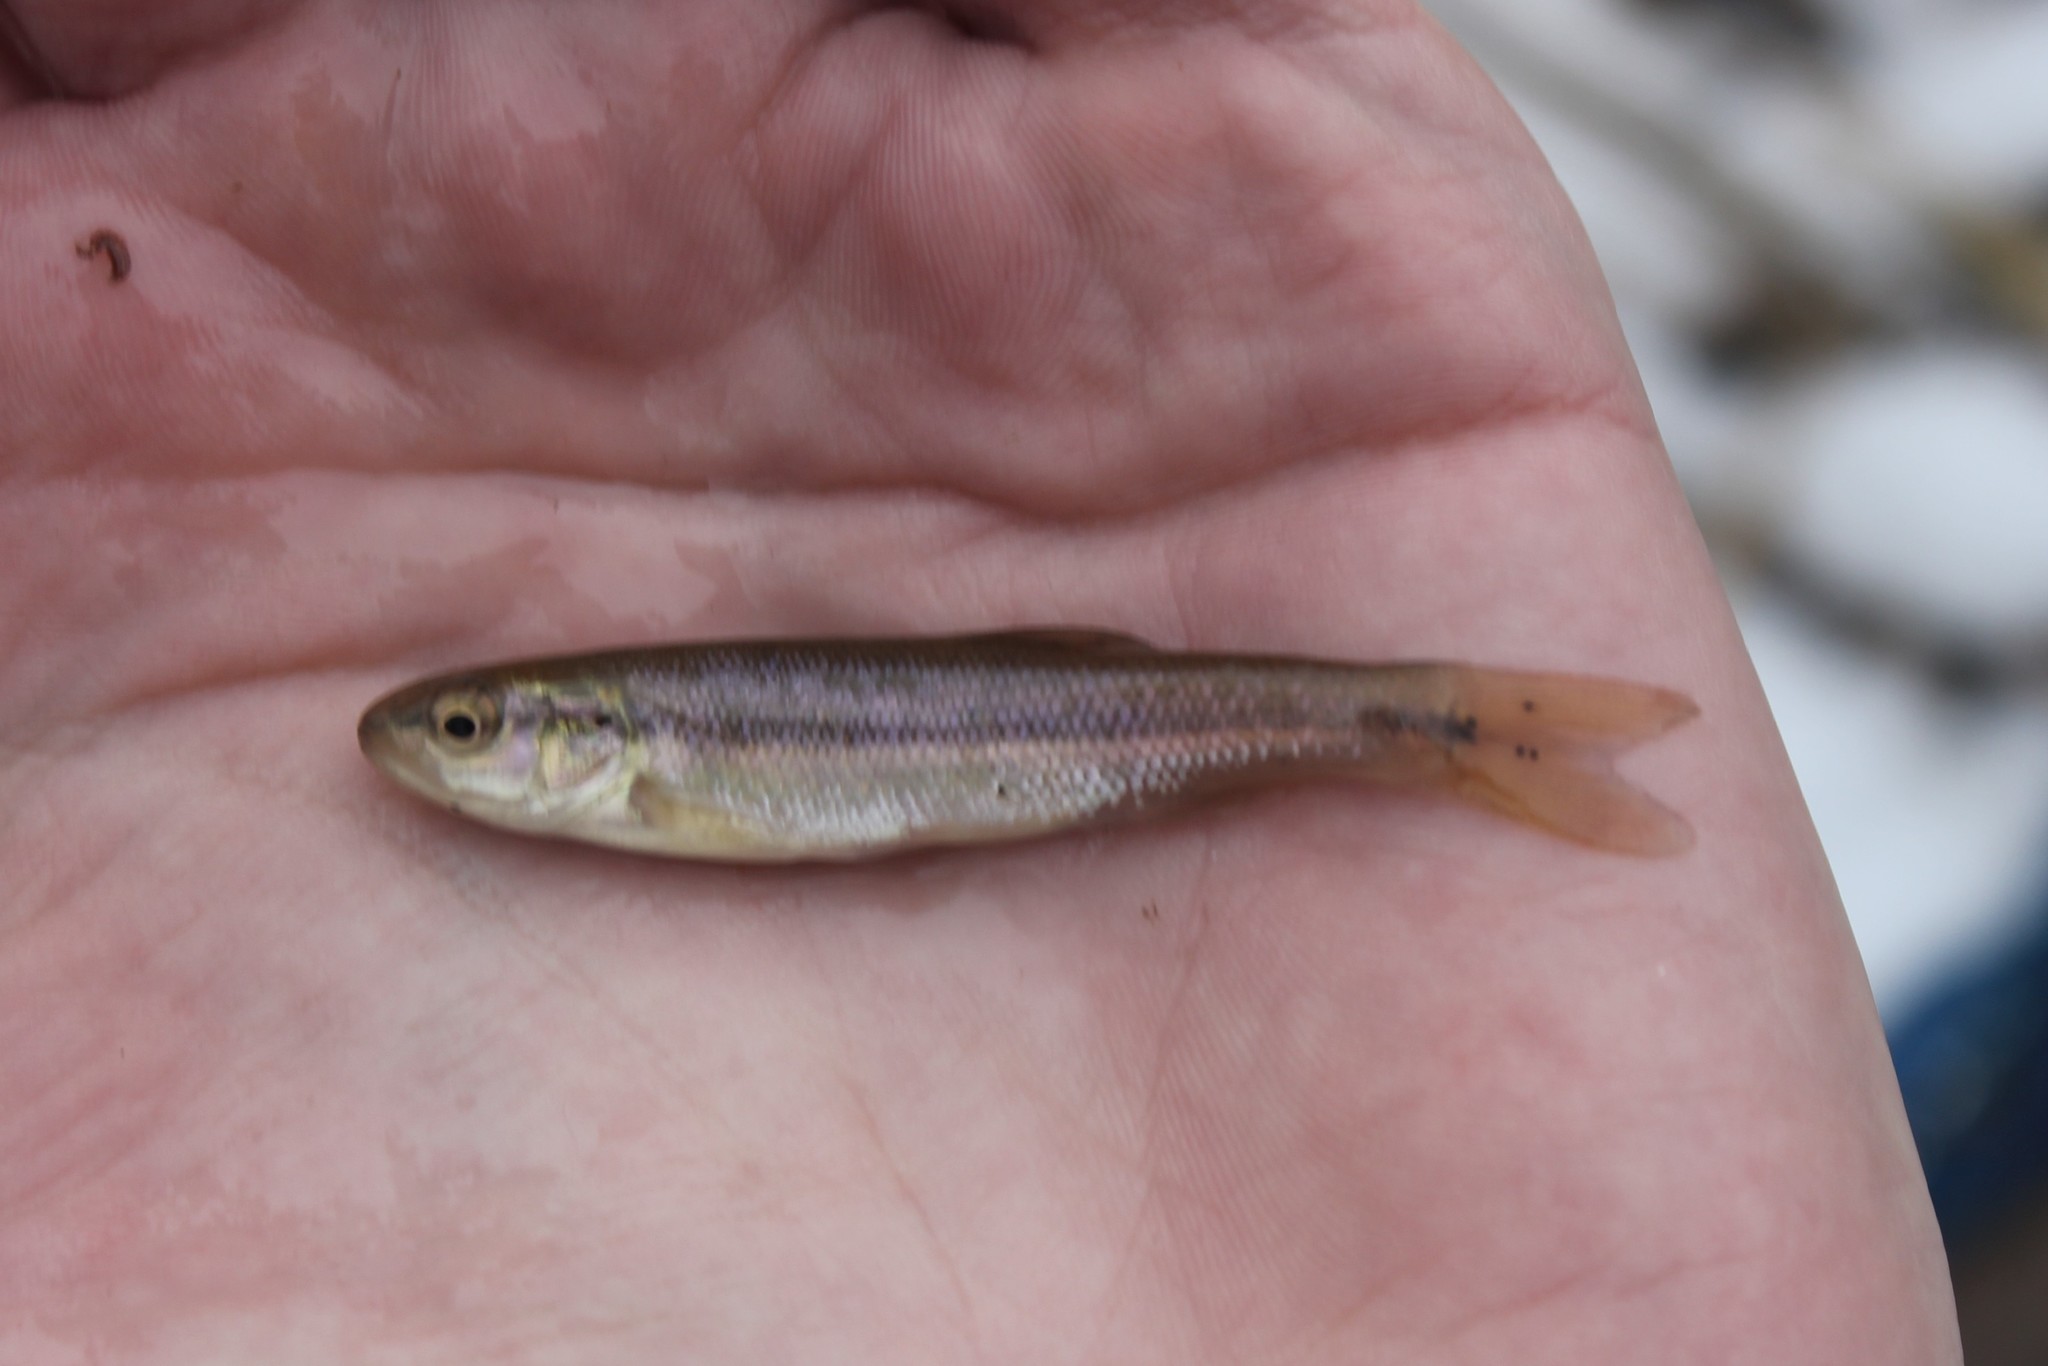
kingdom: Animalia
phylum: Chordata
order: Cypriniformes
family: Cyprinidae
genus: Semotilus
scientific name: Semotilus atromaculatus
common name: Creek chub
